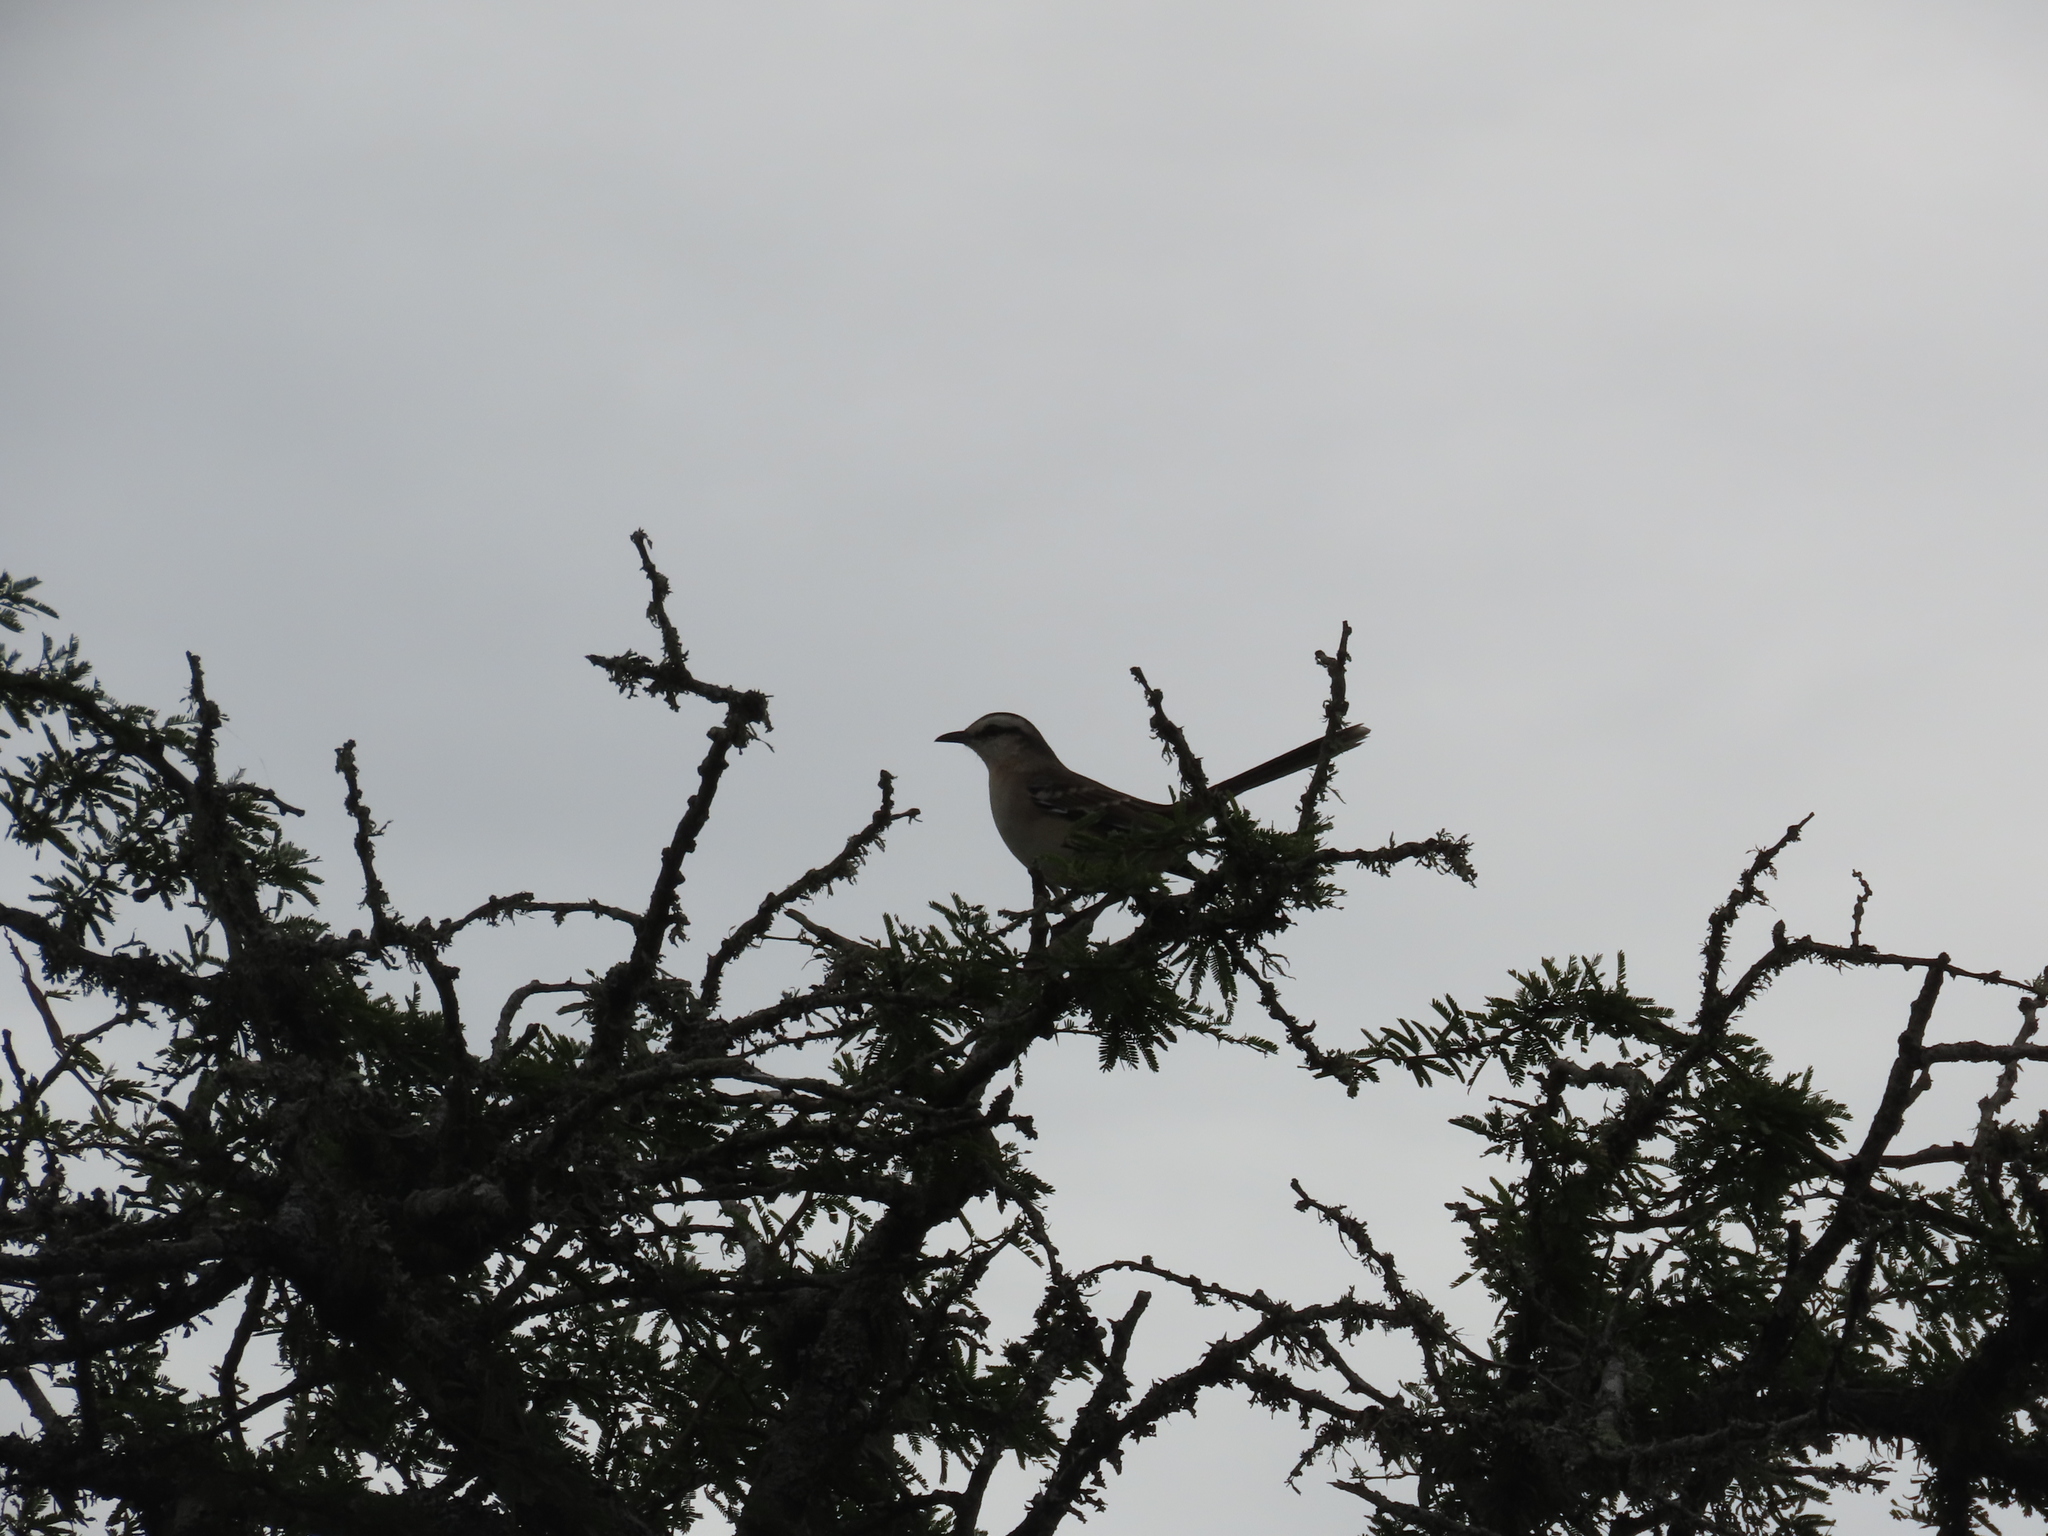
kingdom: Animalia
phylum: Chordata
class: Aves
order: Passeriformes
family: Mimidae
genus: Mimus
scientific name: Mimus saturninus
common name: Chalk-browed mockingbird
